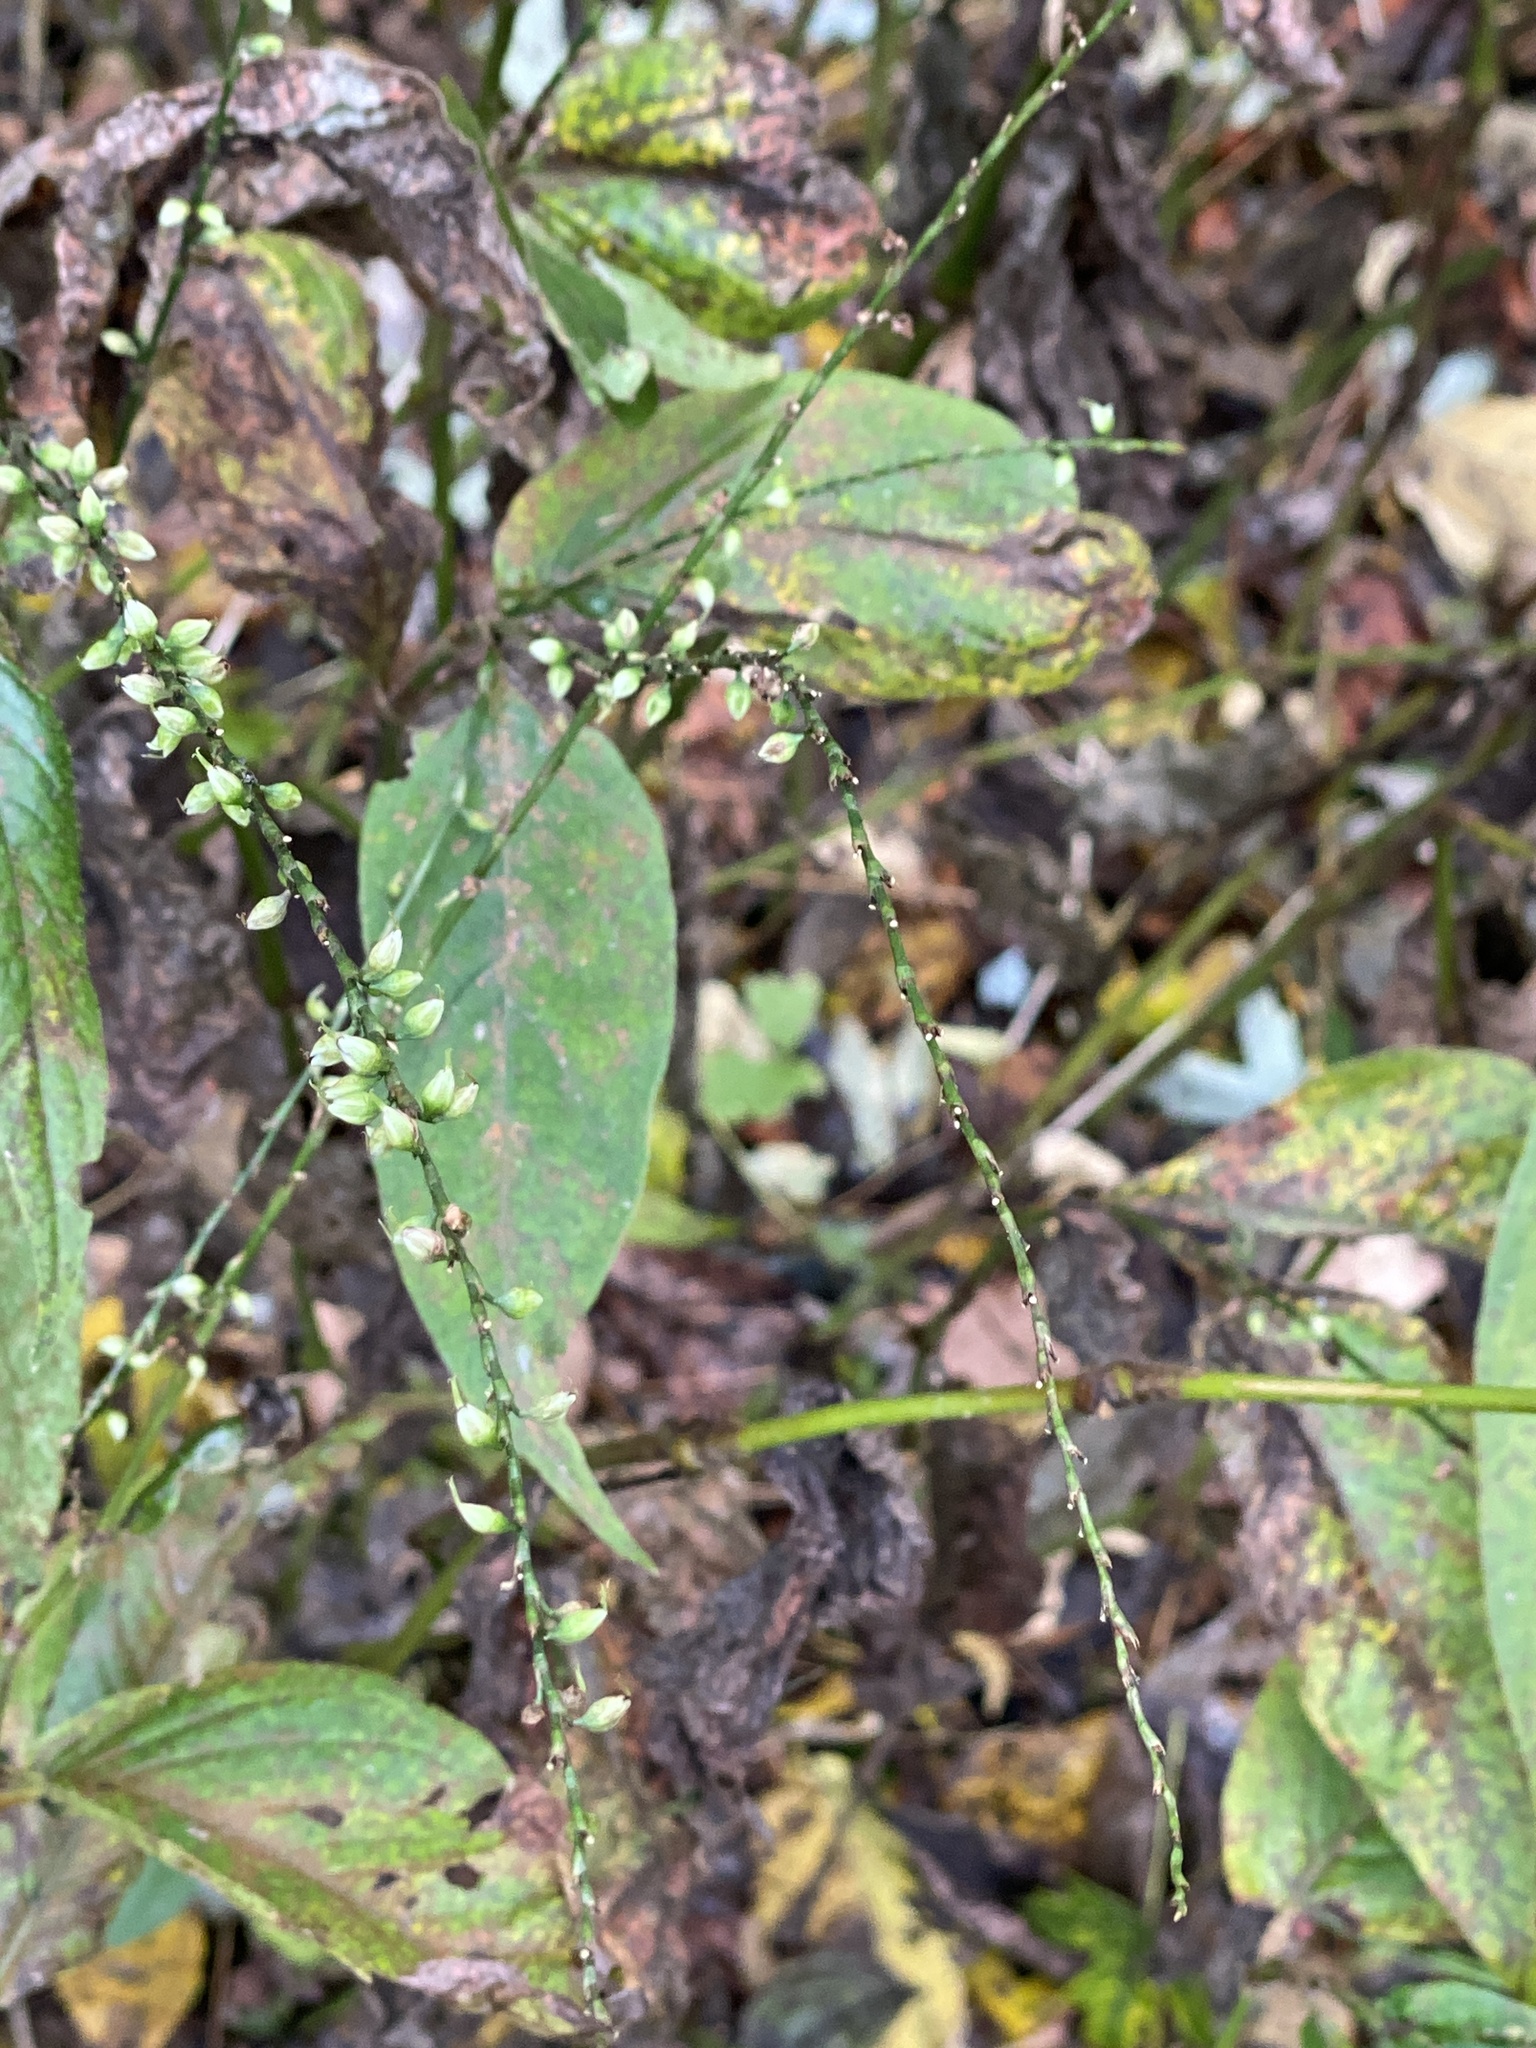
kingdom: Plantae
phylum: Tracheophyta
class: Magnoliopsida
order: Caryophyllales
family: Polygonaceae
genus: Persicaria
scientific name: Persicaria virginiana
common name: Jumpseed
